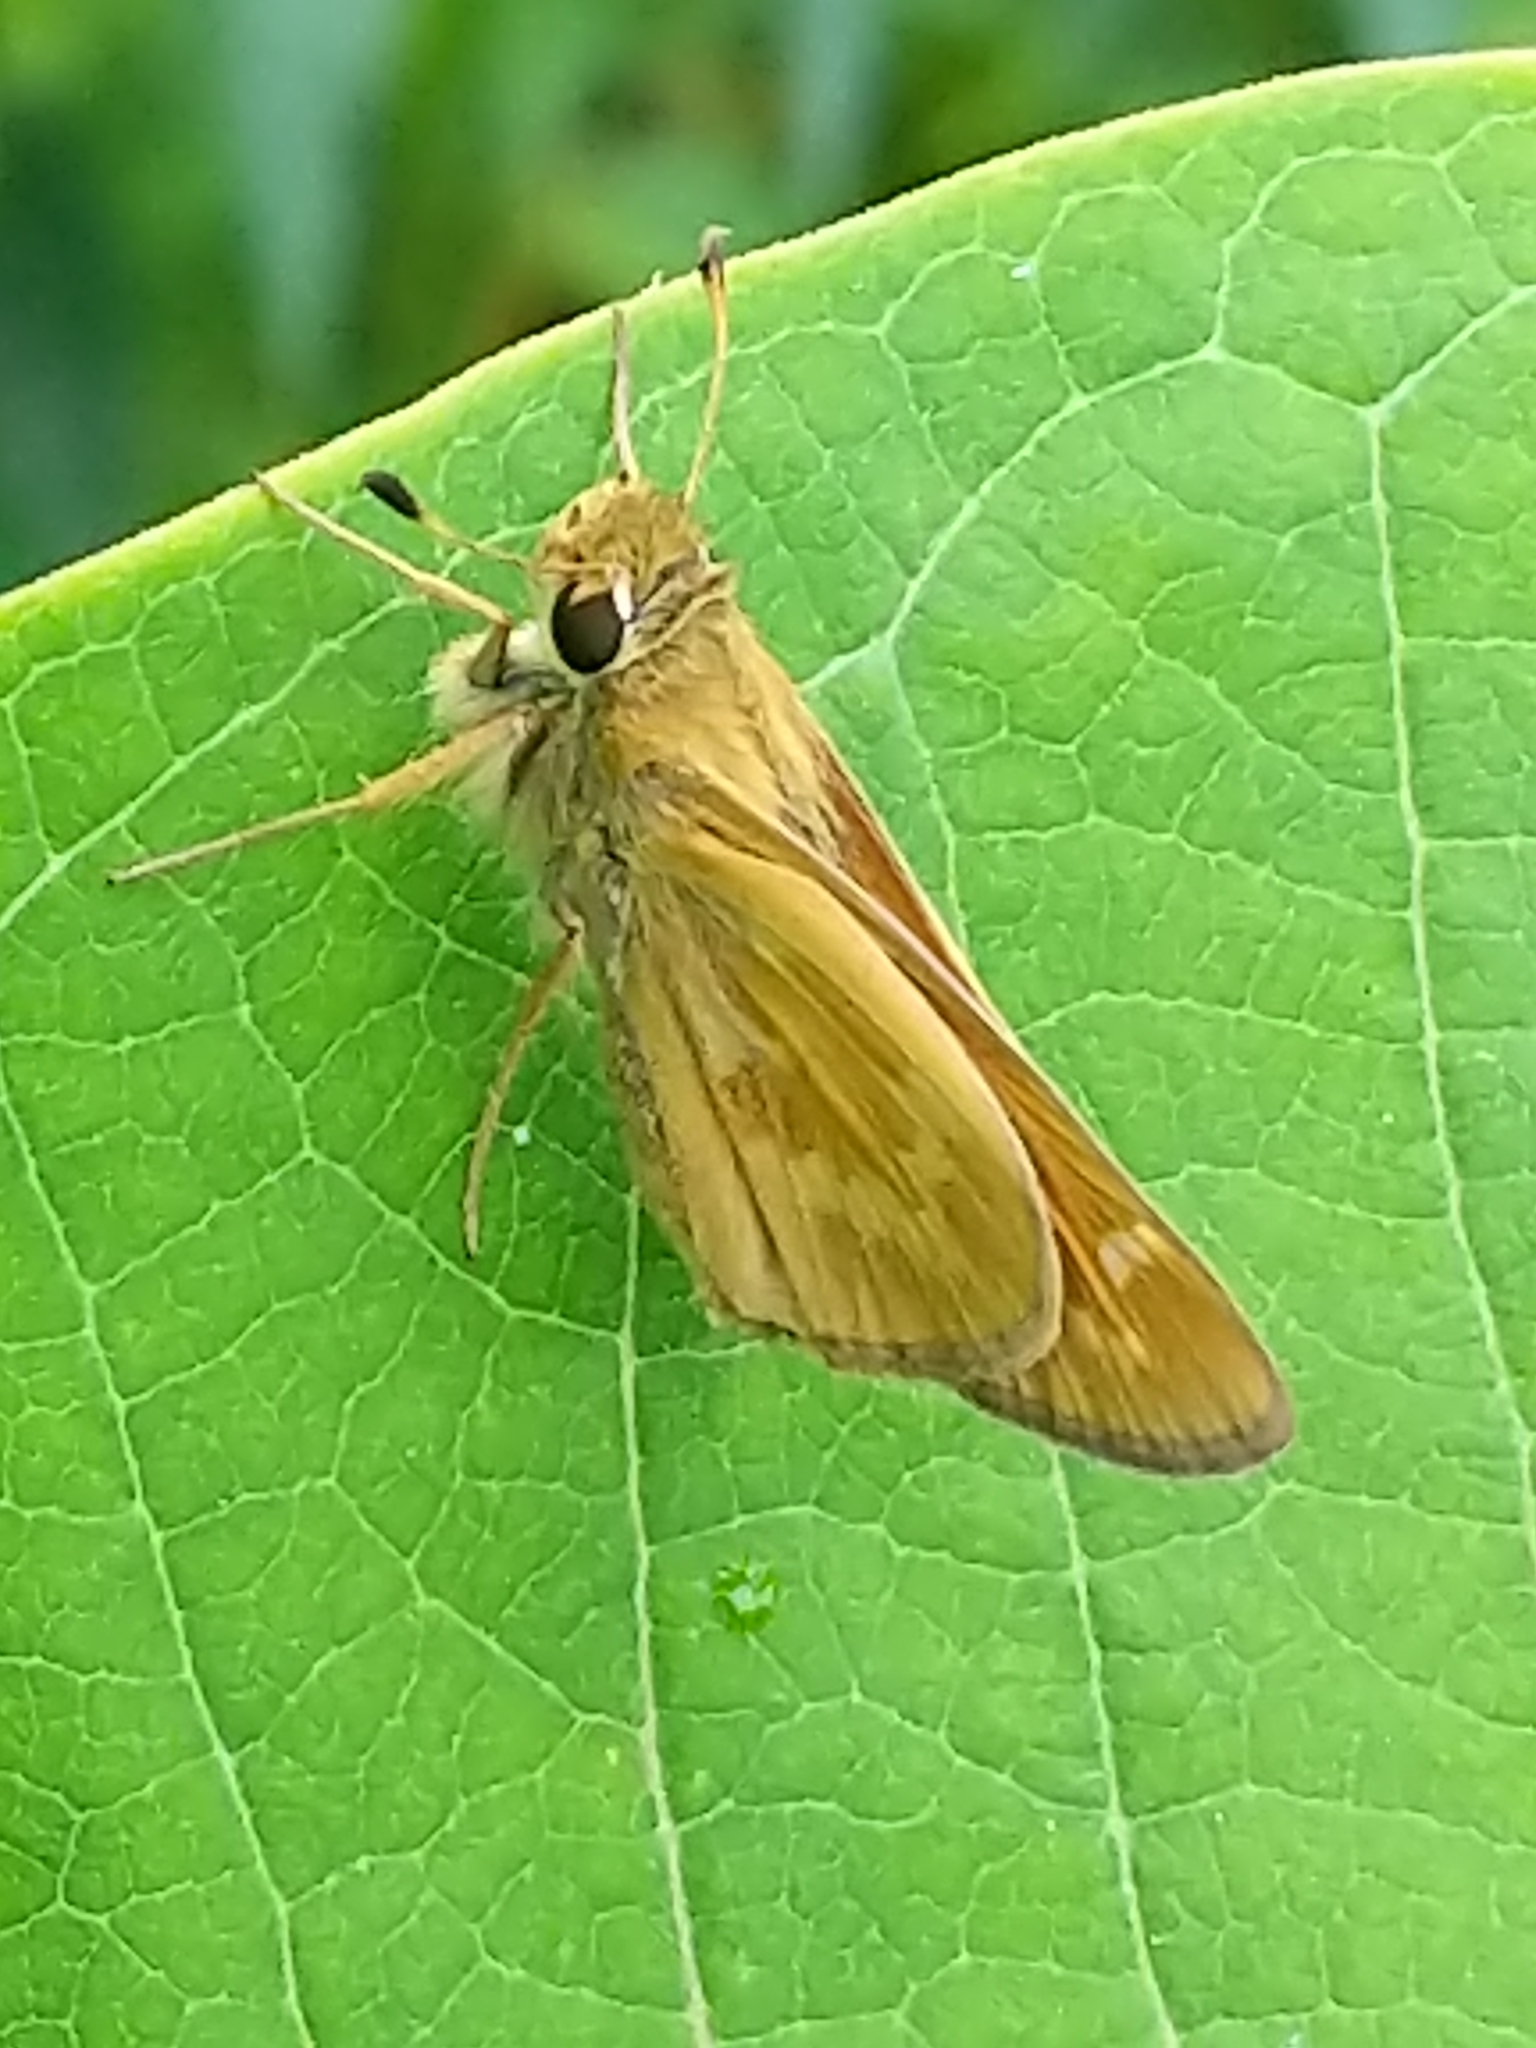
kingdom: Animalia
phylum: Arthropoda
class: Insecta
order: Lepidoptera
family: Hesperiidae
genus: Atalopedes
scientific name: Atalopedes
